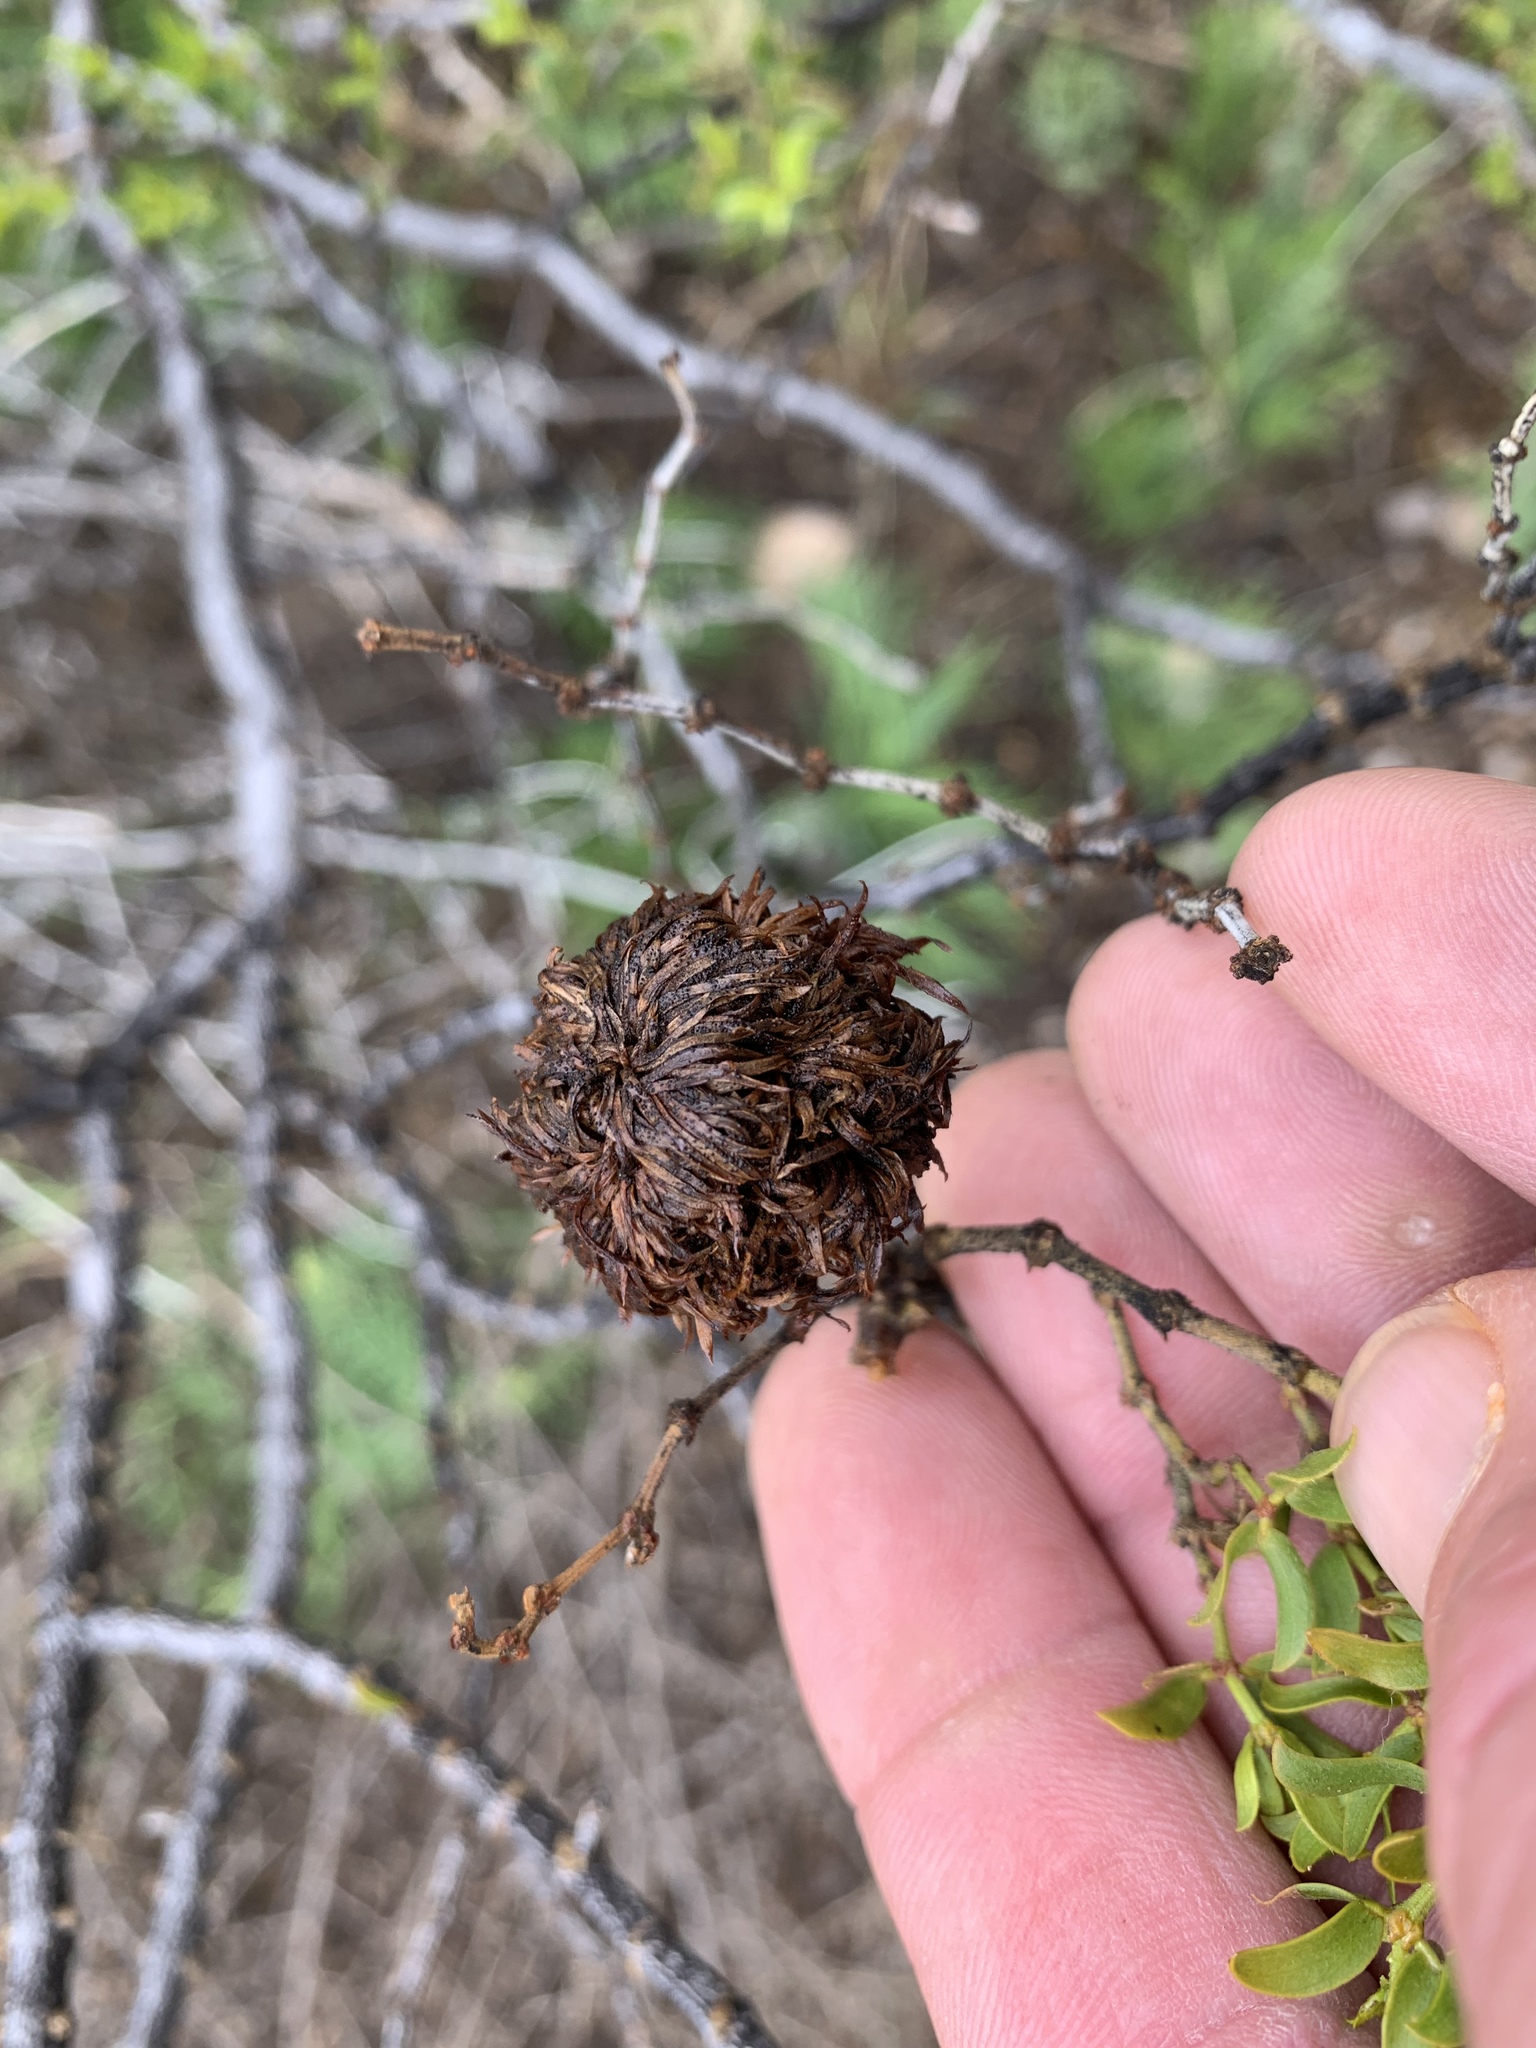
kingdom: Animalia
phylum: Arthropoda
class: Insecta
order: Diptera
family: Cecidomyiidae
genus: Asphondylia
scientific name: Asphondylia auripila
